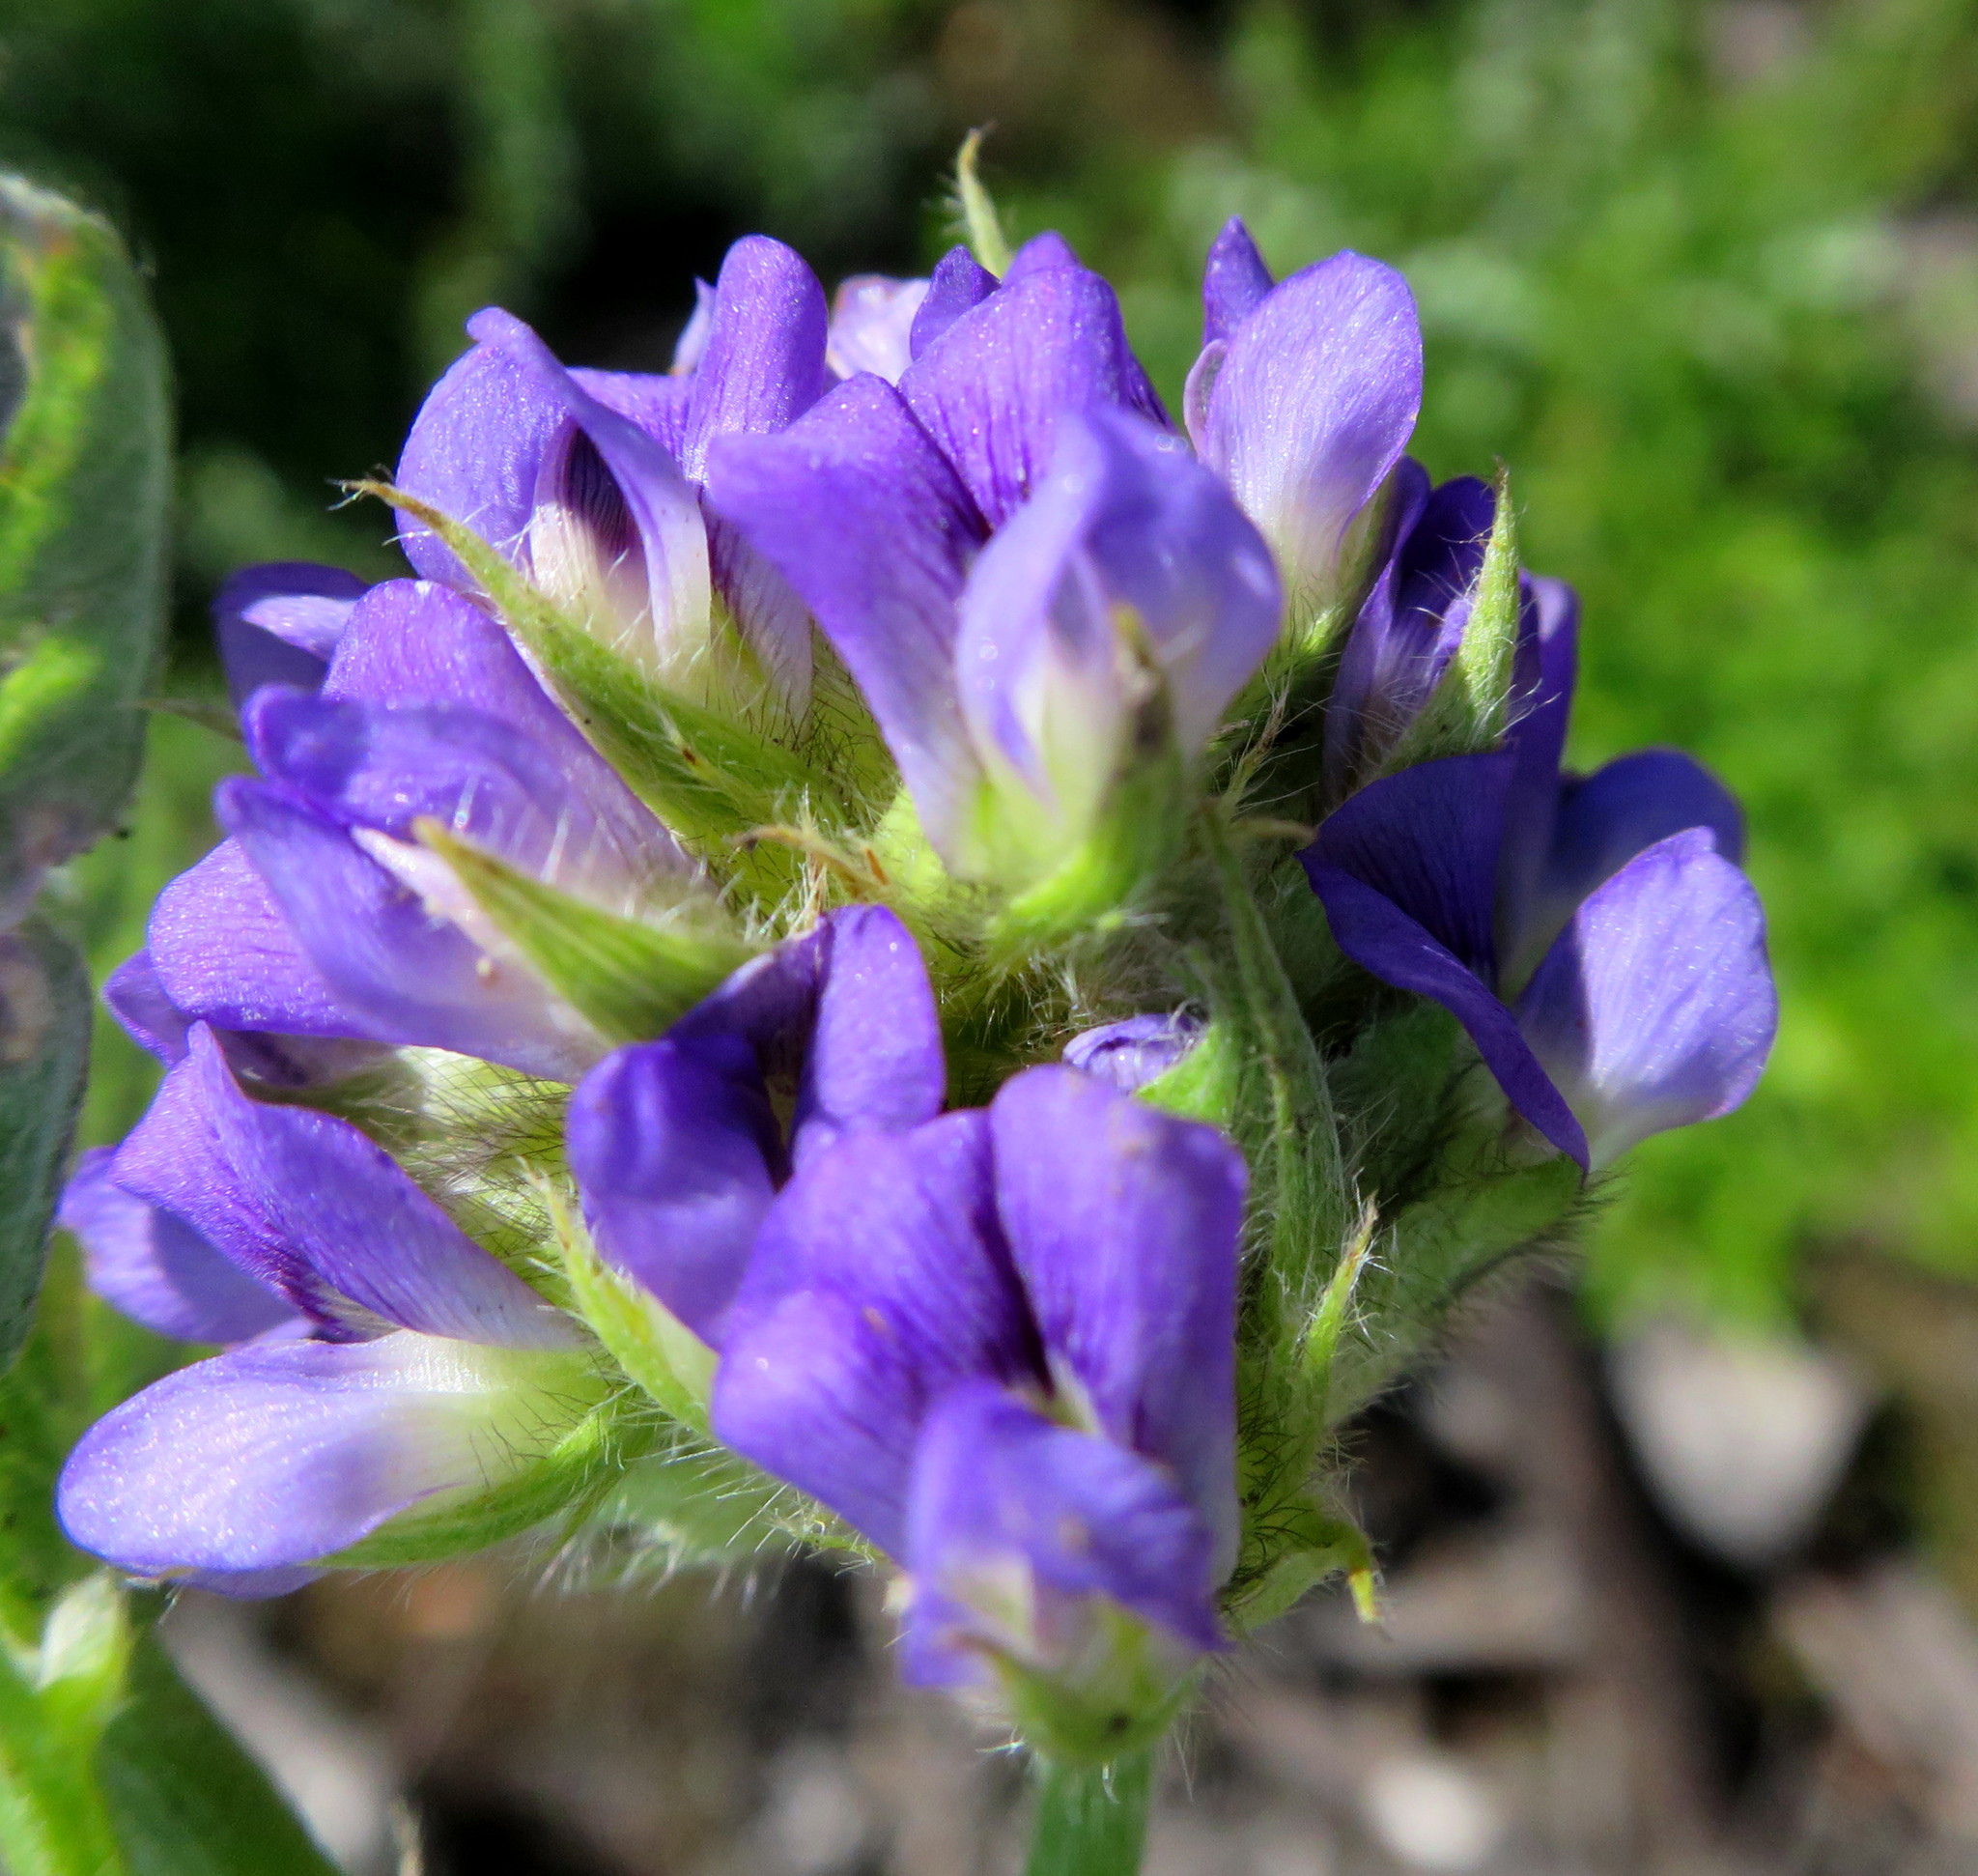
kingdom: Plantae
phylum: Tracheophyta
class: Magnoliopsida
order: Fabales
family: Fabaceae
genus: Psoralea
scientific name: Psoralea sericea
